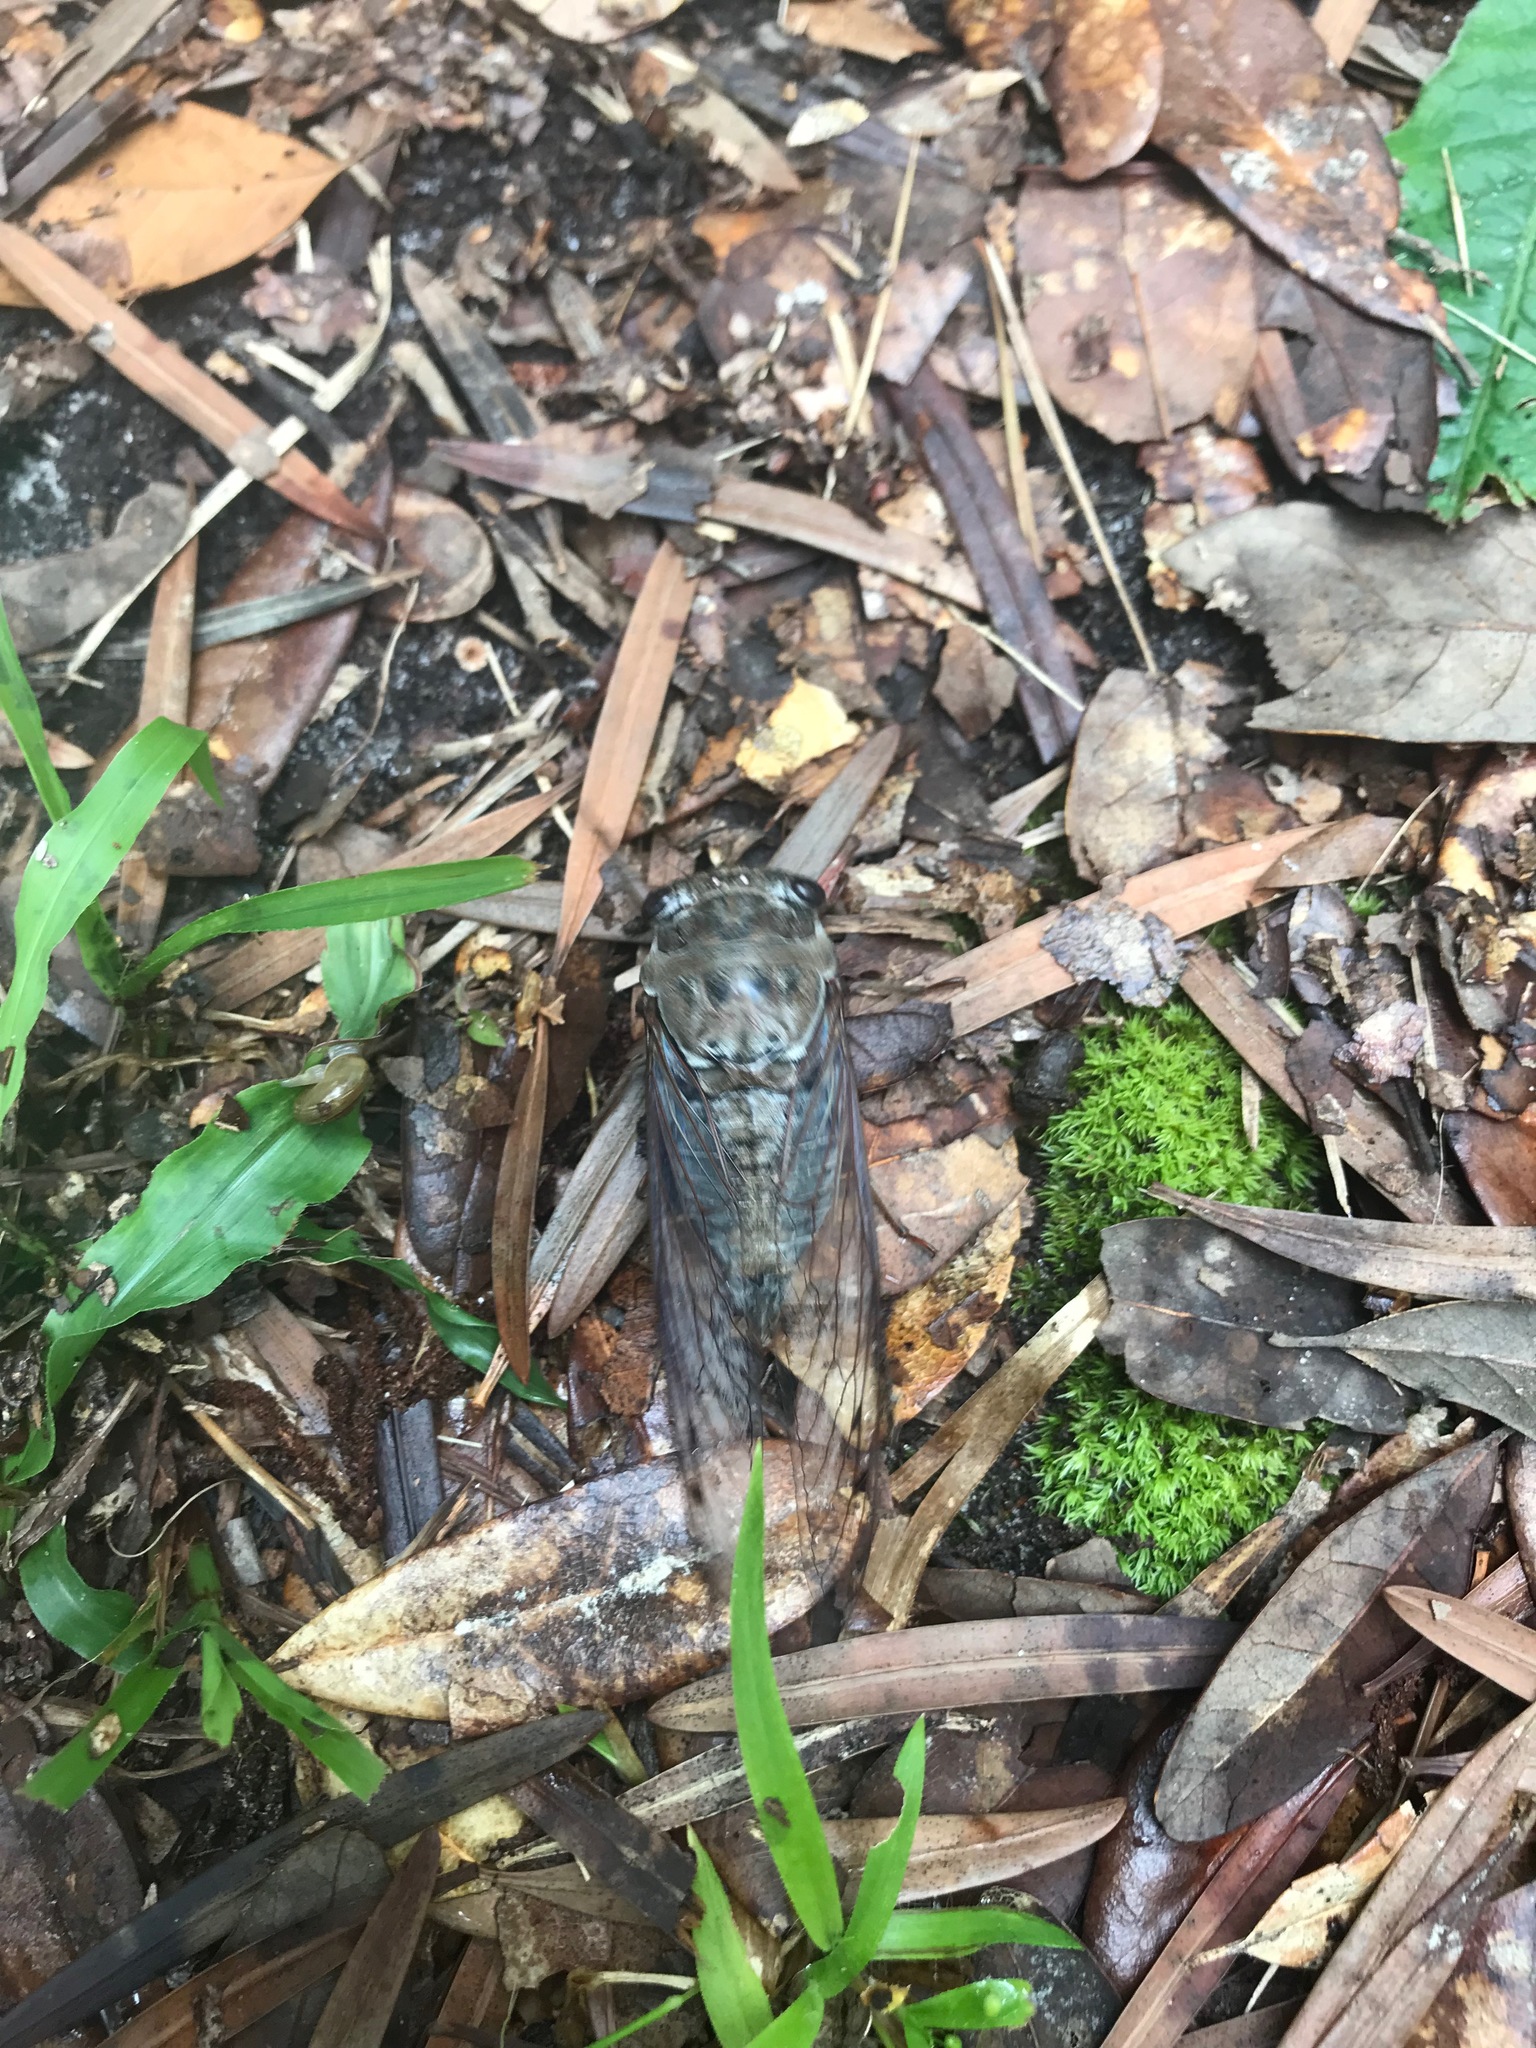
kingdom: Animalia
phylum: Arthropoda
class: Insecta
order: Hemiptera
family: Cicadidae
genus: Megatibicen
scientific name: Megatibicen resonans
